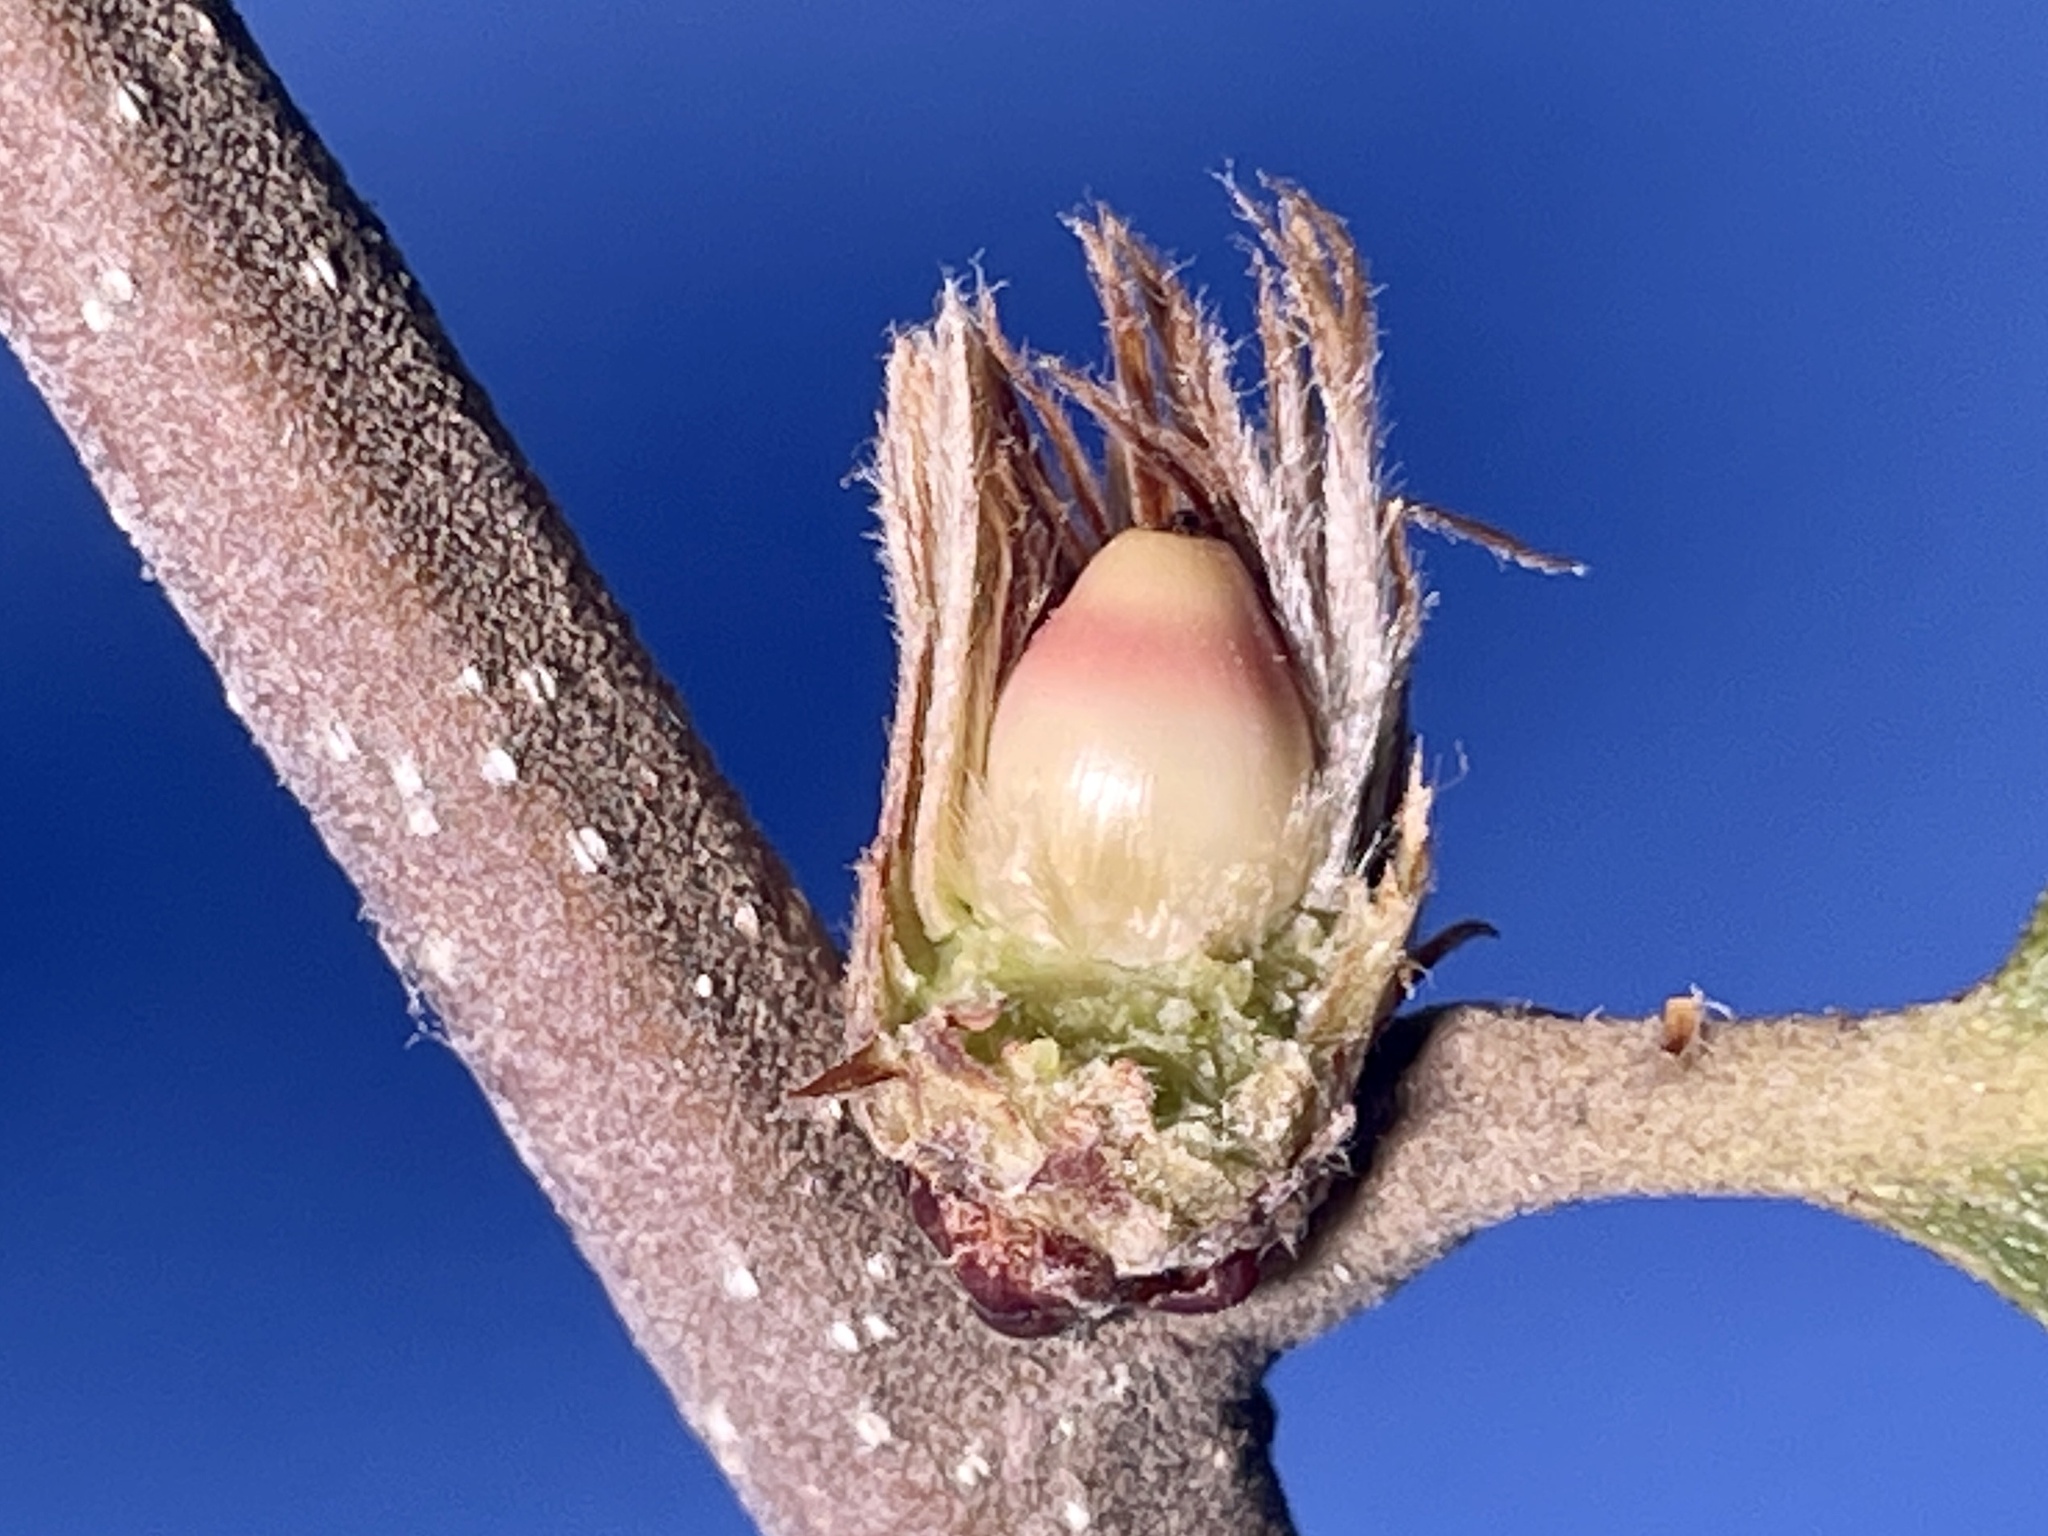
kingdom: Animalia
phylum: Arthropoda
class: Insecta
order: Hymenoptera
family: Cynipidae
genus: Andricus
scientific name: Andricus
